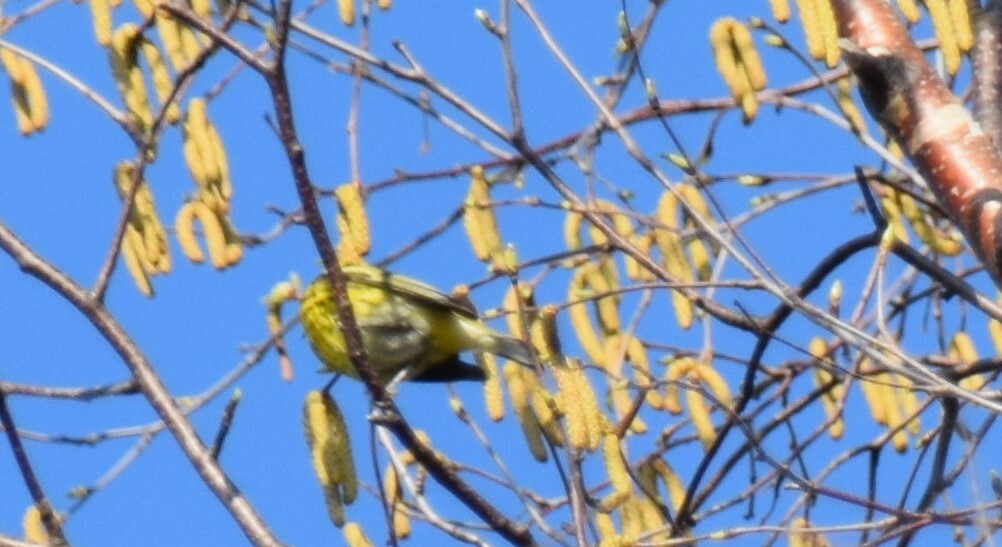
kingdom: Animalia
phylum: Chordata
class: Aves
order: Passeriformes
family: Parulidae
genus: Setophaga
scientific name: Setophaga tigrina
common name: Cape may warbler
